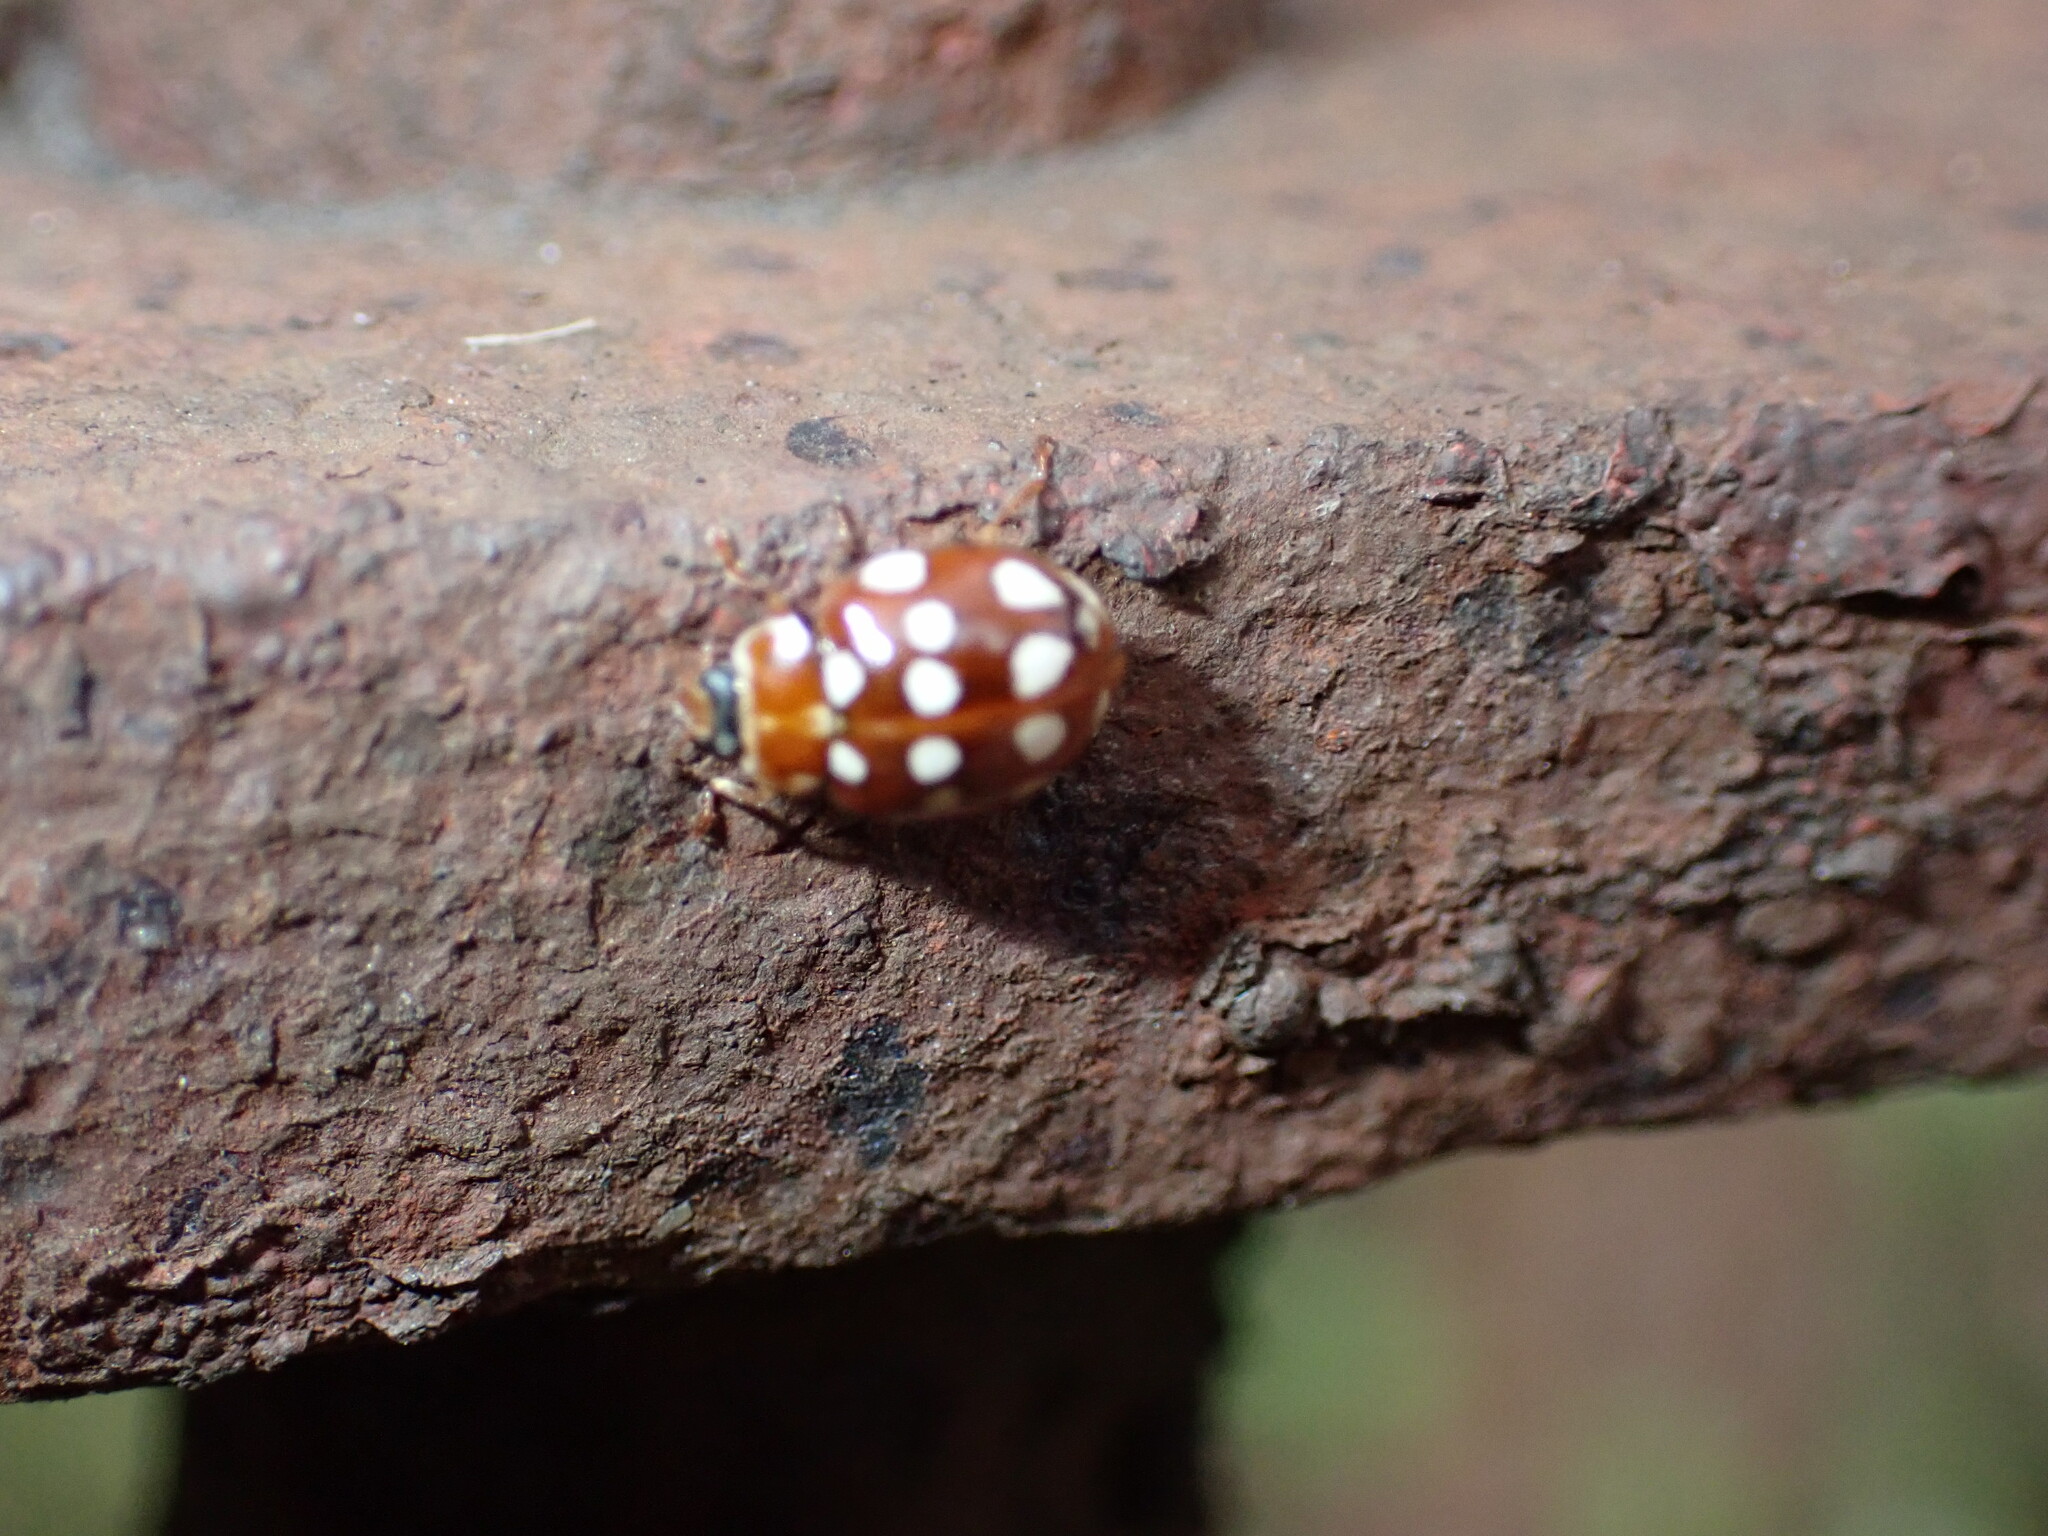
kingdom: Animalia
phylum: Arthropoda
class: Insecta
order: Coleoptera
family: Coccinellidae
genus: Calvia
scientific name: Calvia quatuordecimguttata
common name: Cream-spot ladybird
